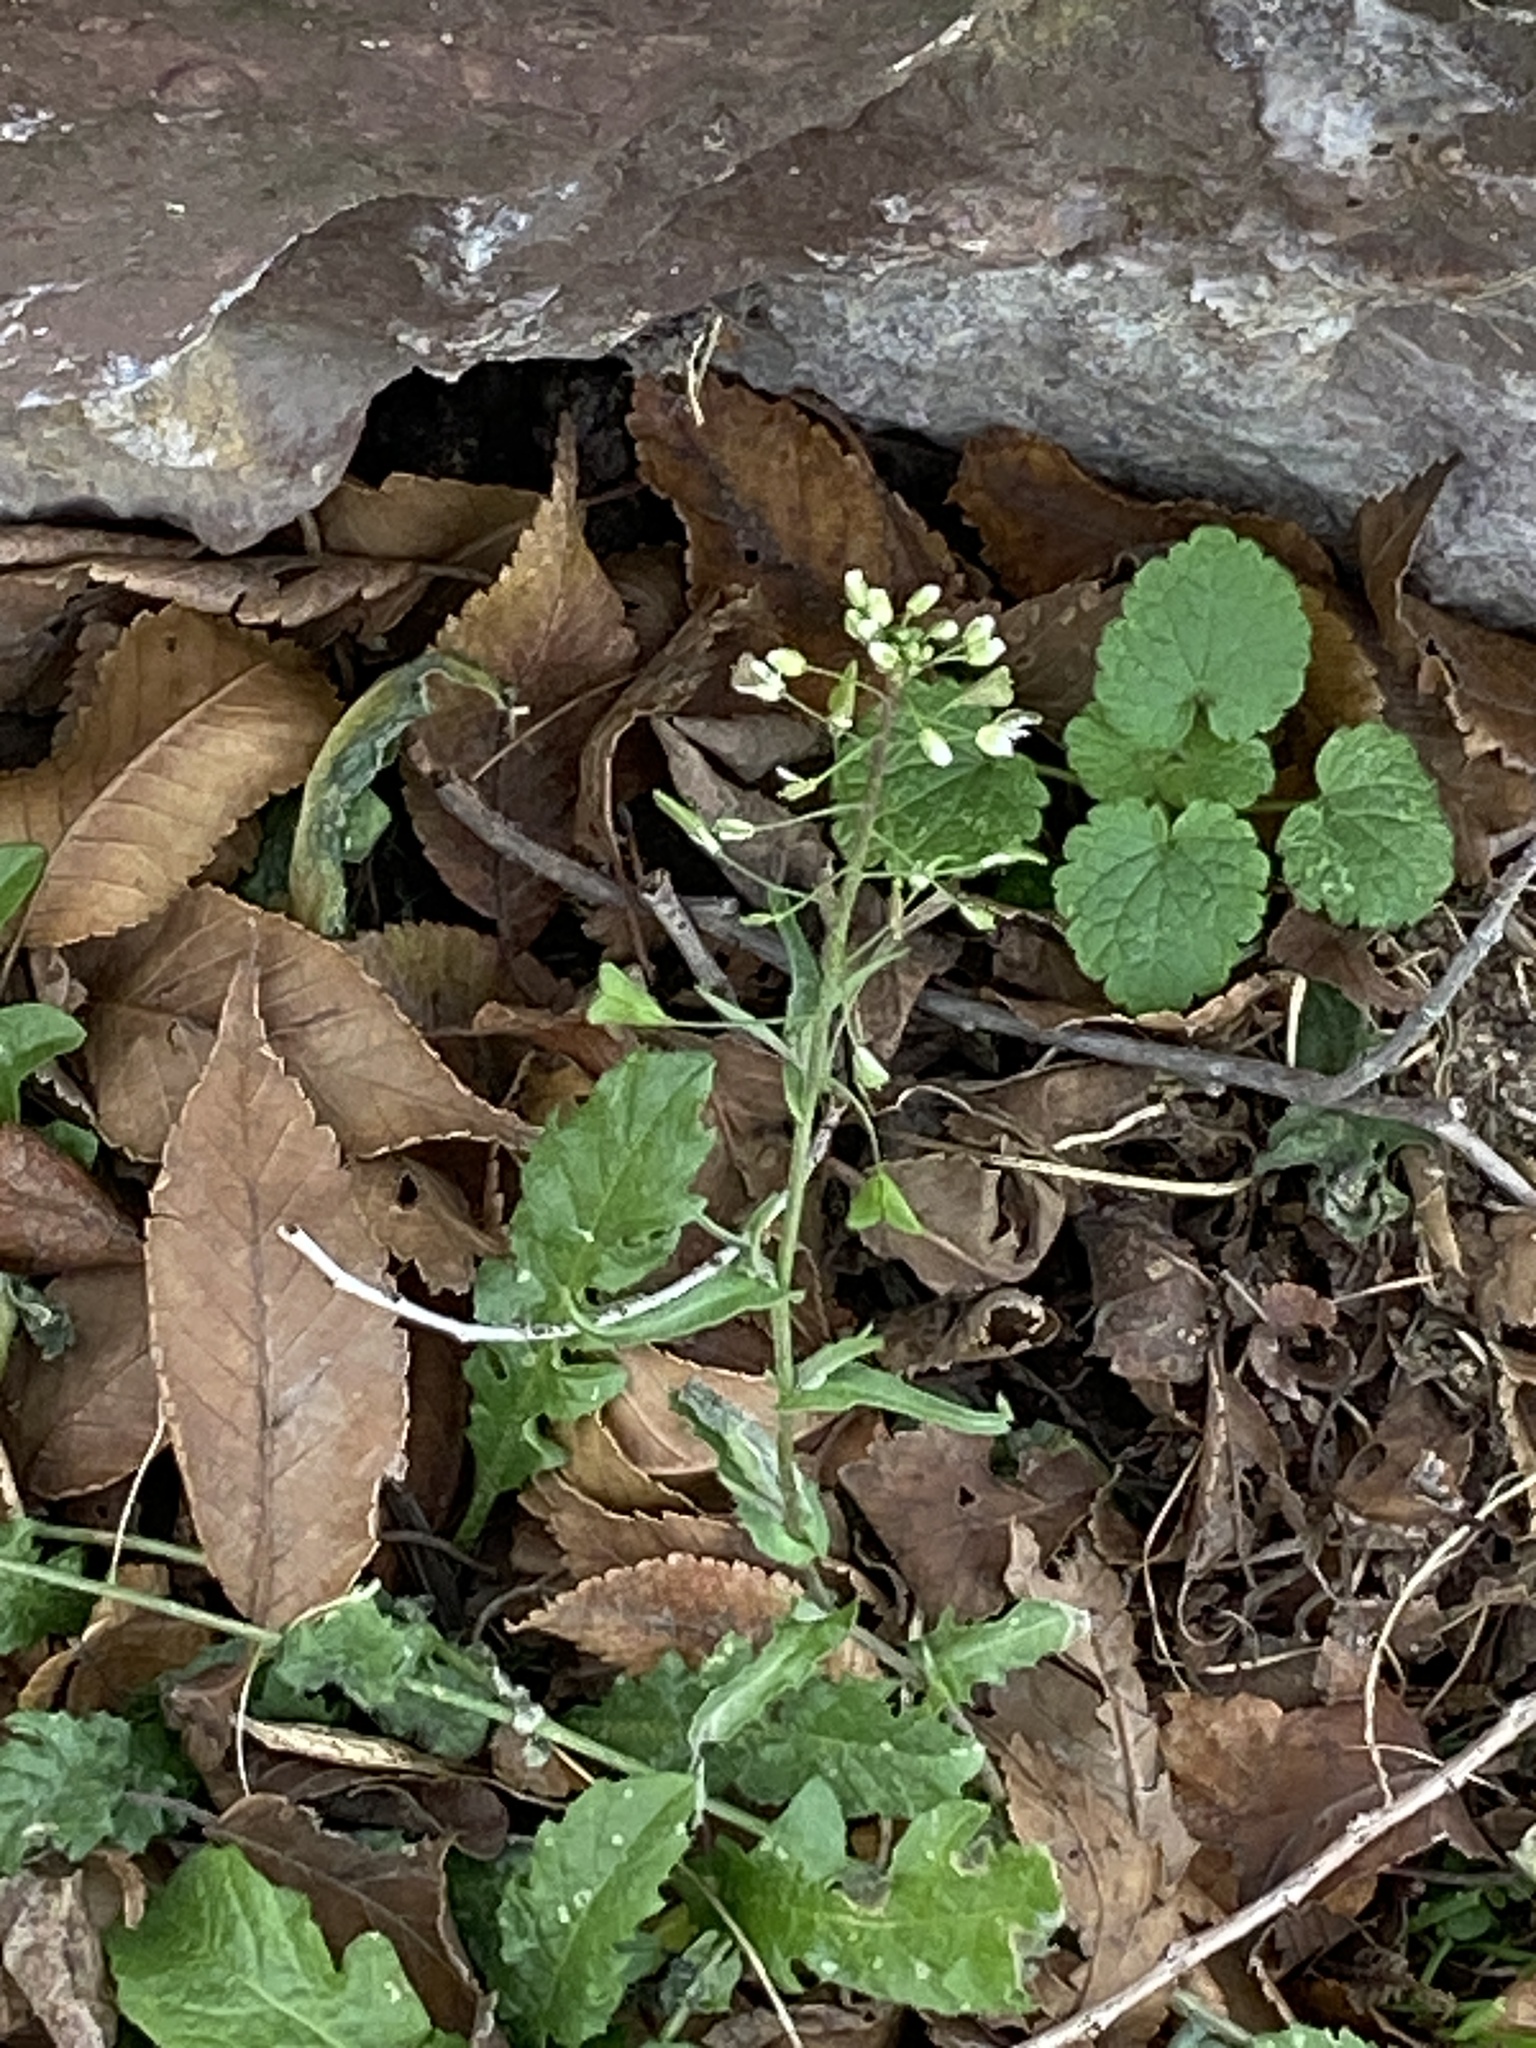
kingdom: Plantae
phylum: Tracheophyta
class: Magnoliopsida
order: Brassicales
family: Brassicaceae
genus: Capsella
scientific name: Capsella bursa-pastoris
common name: Shepherd's purse
